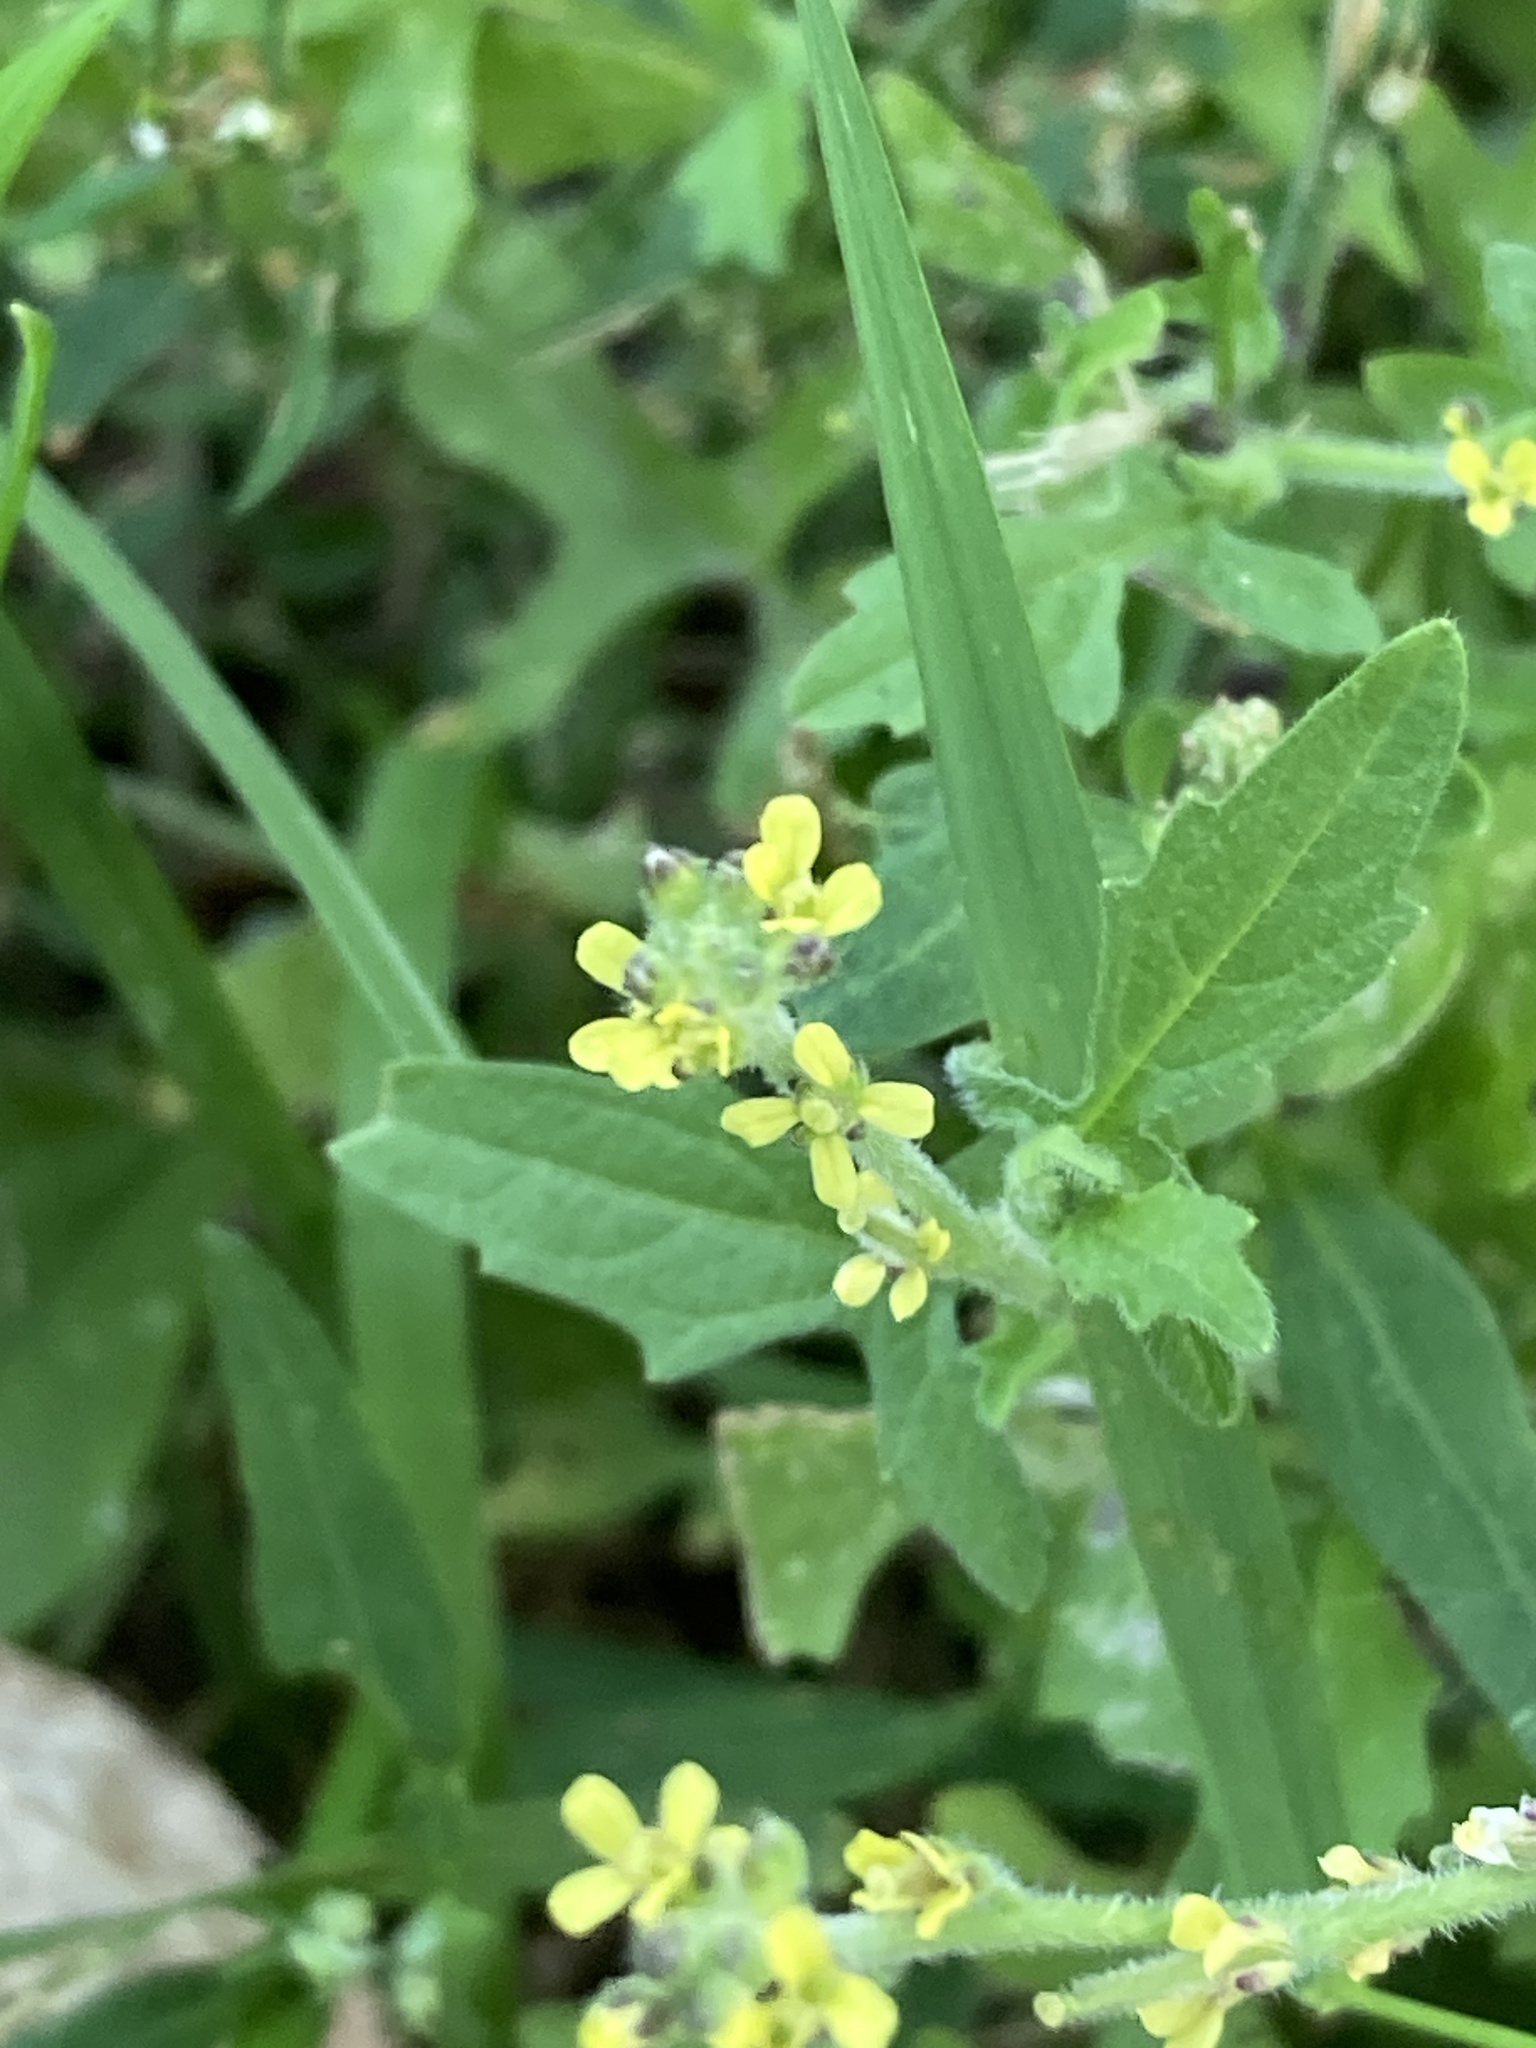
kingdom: Plantae
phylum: Tracheophyta
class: Magnoliopsida
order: Brassicales
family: Brassicaceae
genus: Sisymbrium
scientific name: Sisymbrium officinale
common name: Hedge mustard
